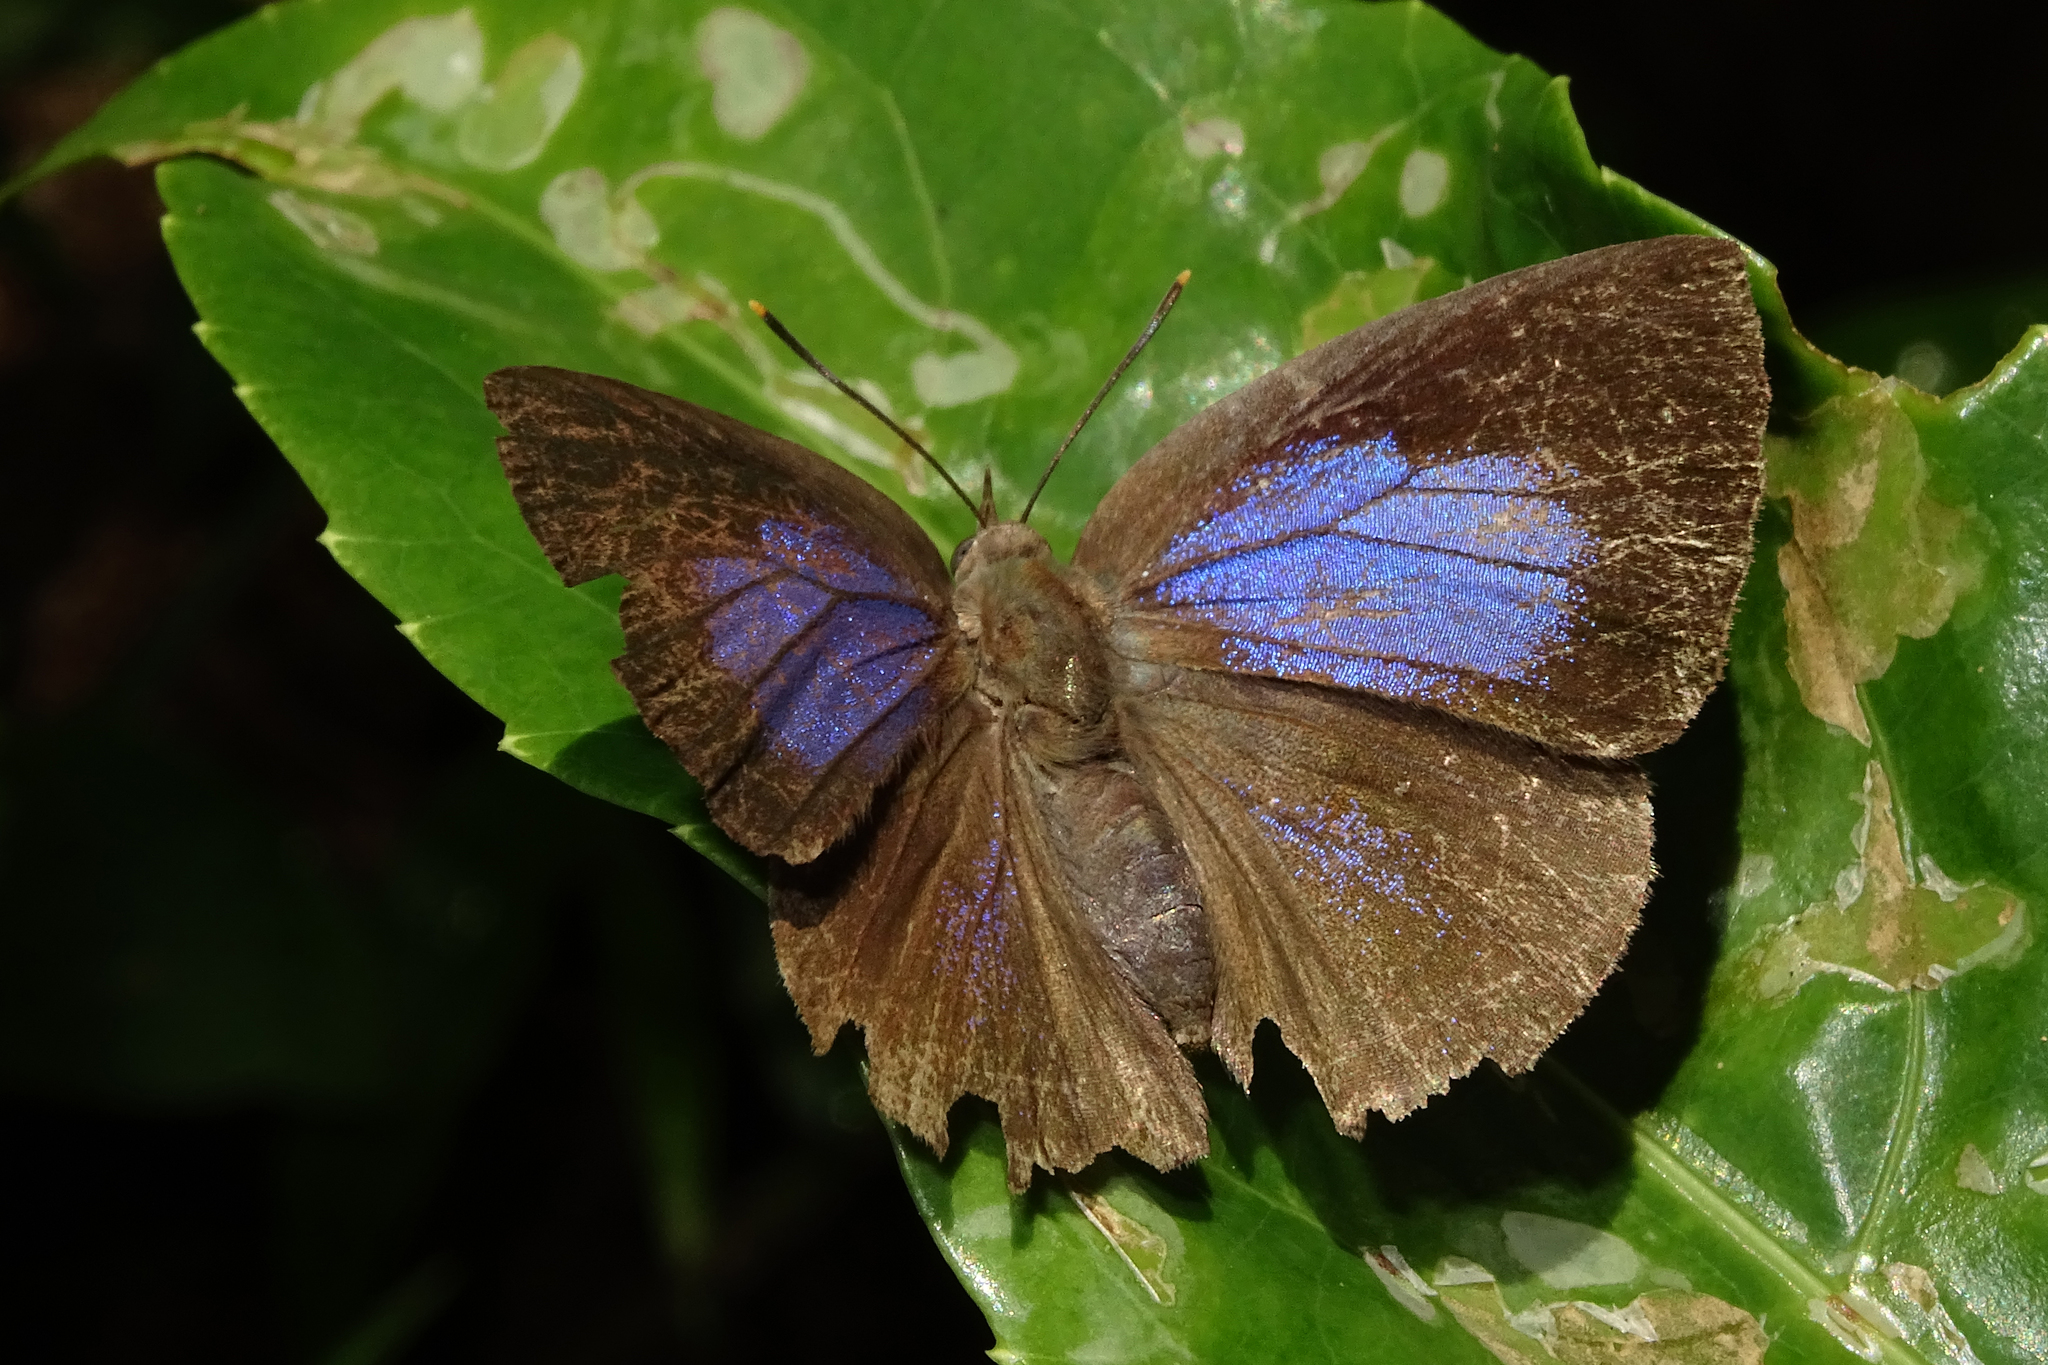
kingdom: Animalia
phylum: Arthropoda
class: Insecta
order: Lepidoptera
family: Lycaenidae
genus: Zinaspa
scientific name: Zinaspa todara
